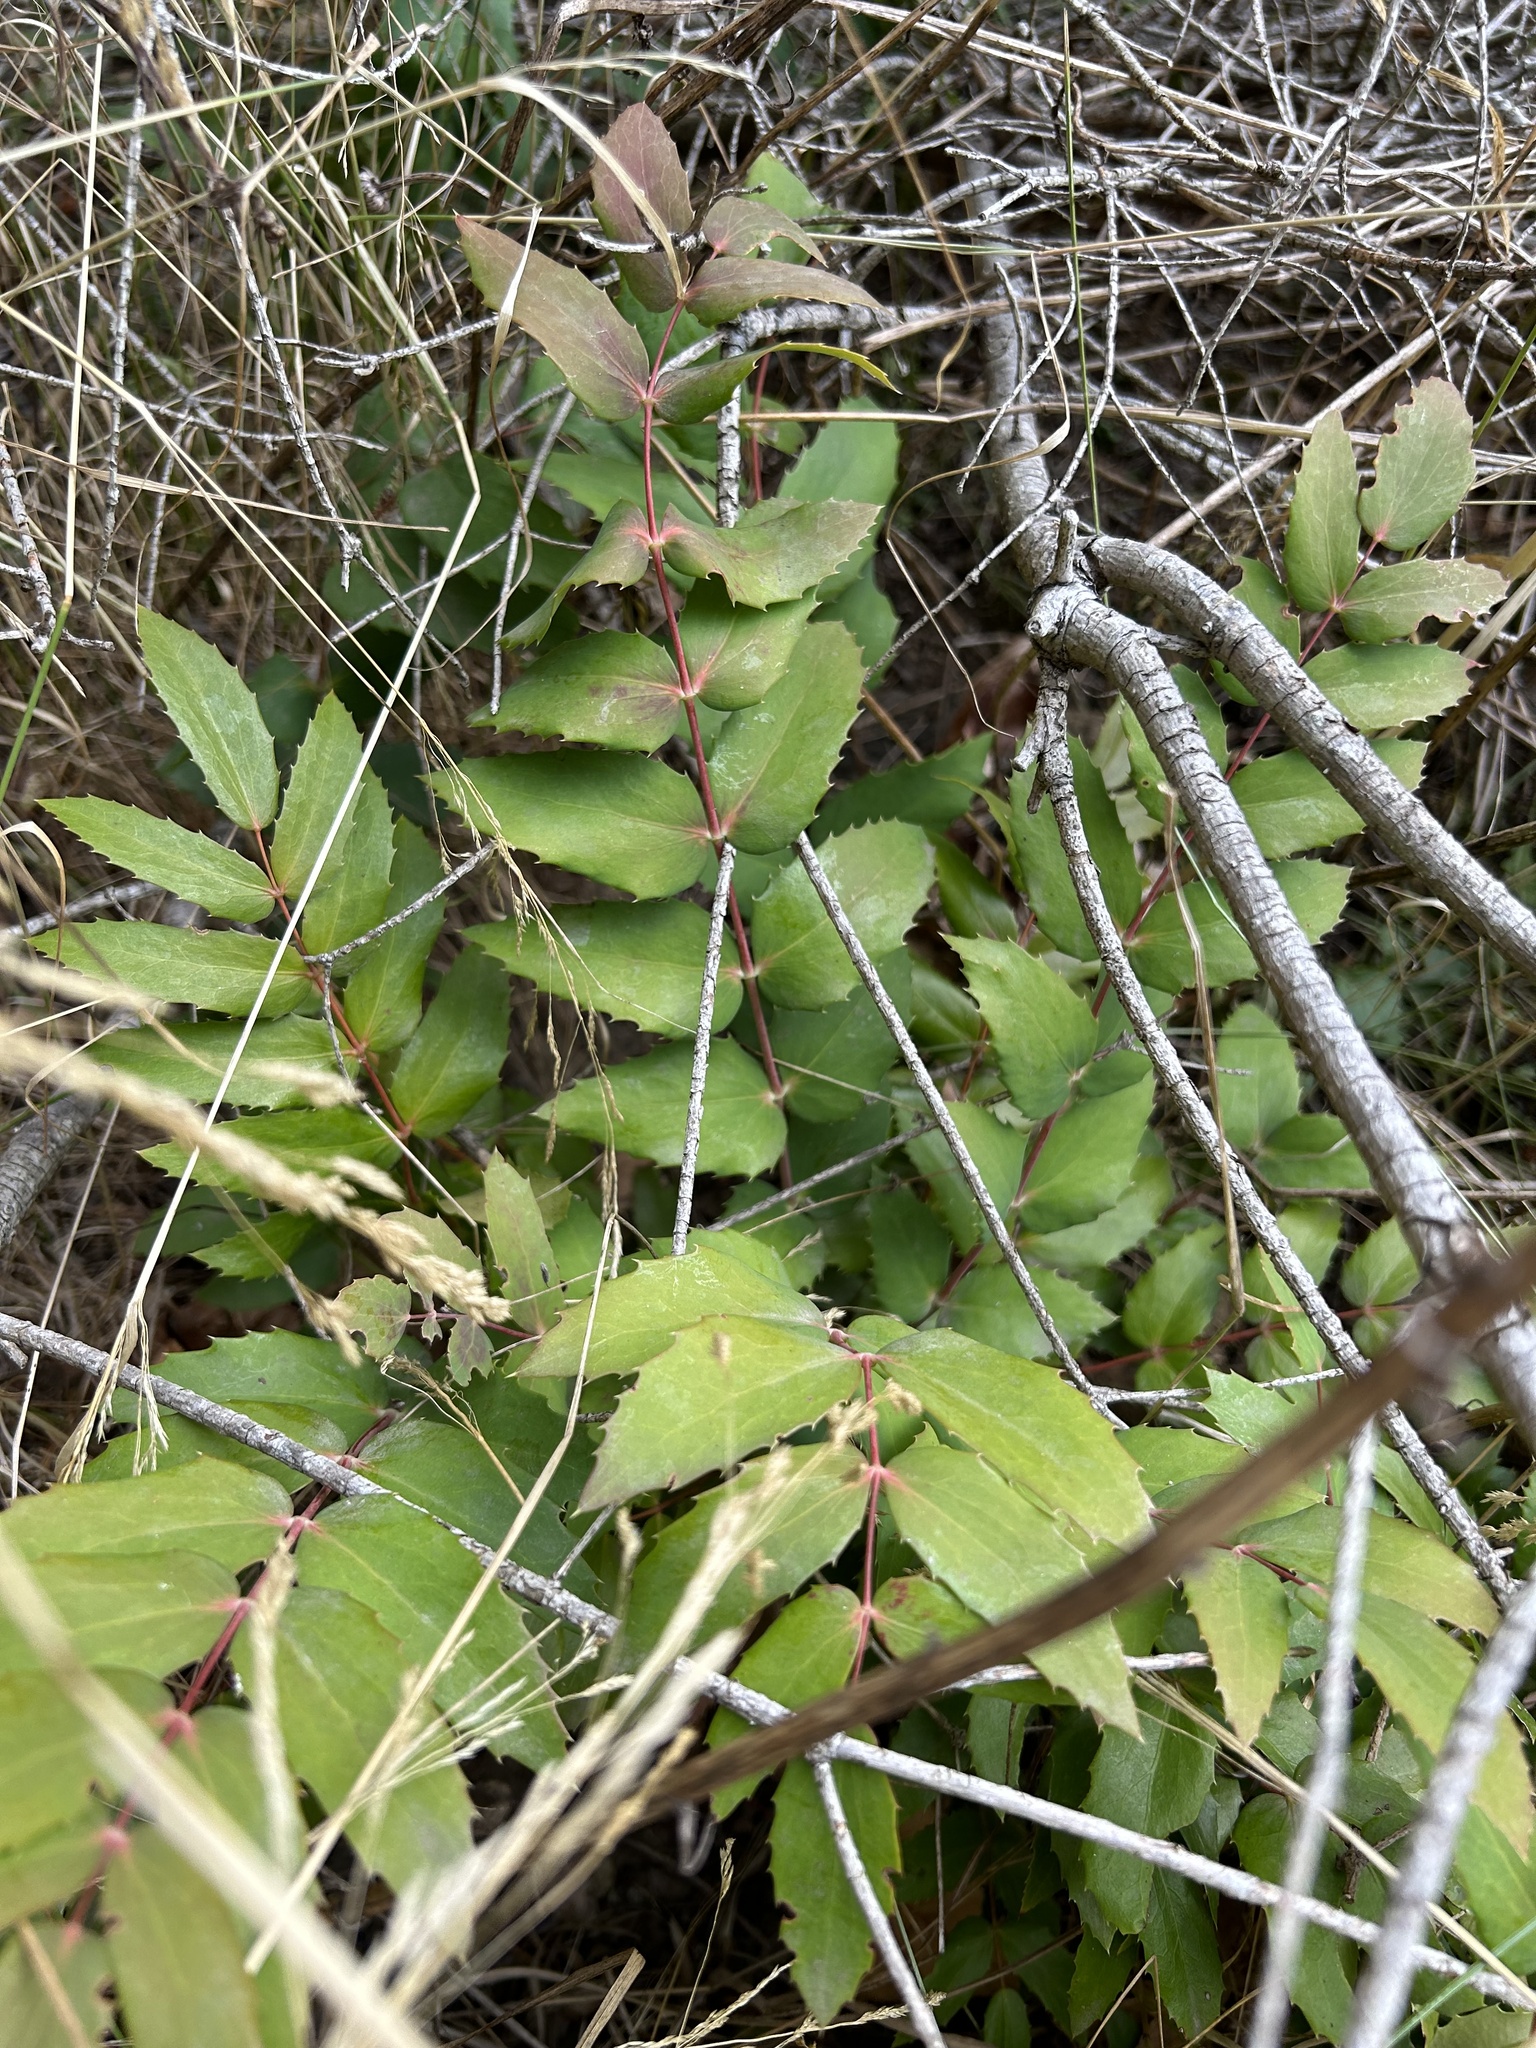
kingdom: Plantae
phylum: Tracheophyta
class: Magnoliopsida
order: Ranunculales
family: Berberidaceae
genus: Mahonia
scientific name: Mahonia nervosa
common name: Cascade oregon-grape
